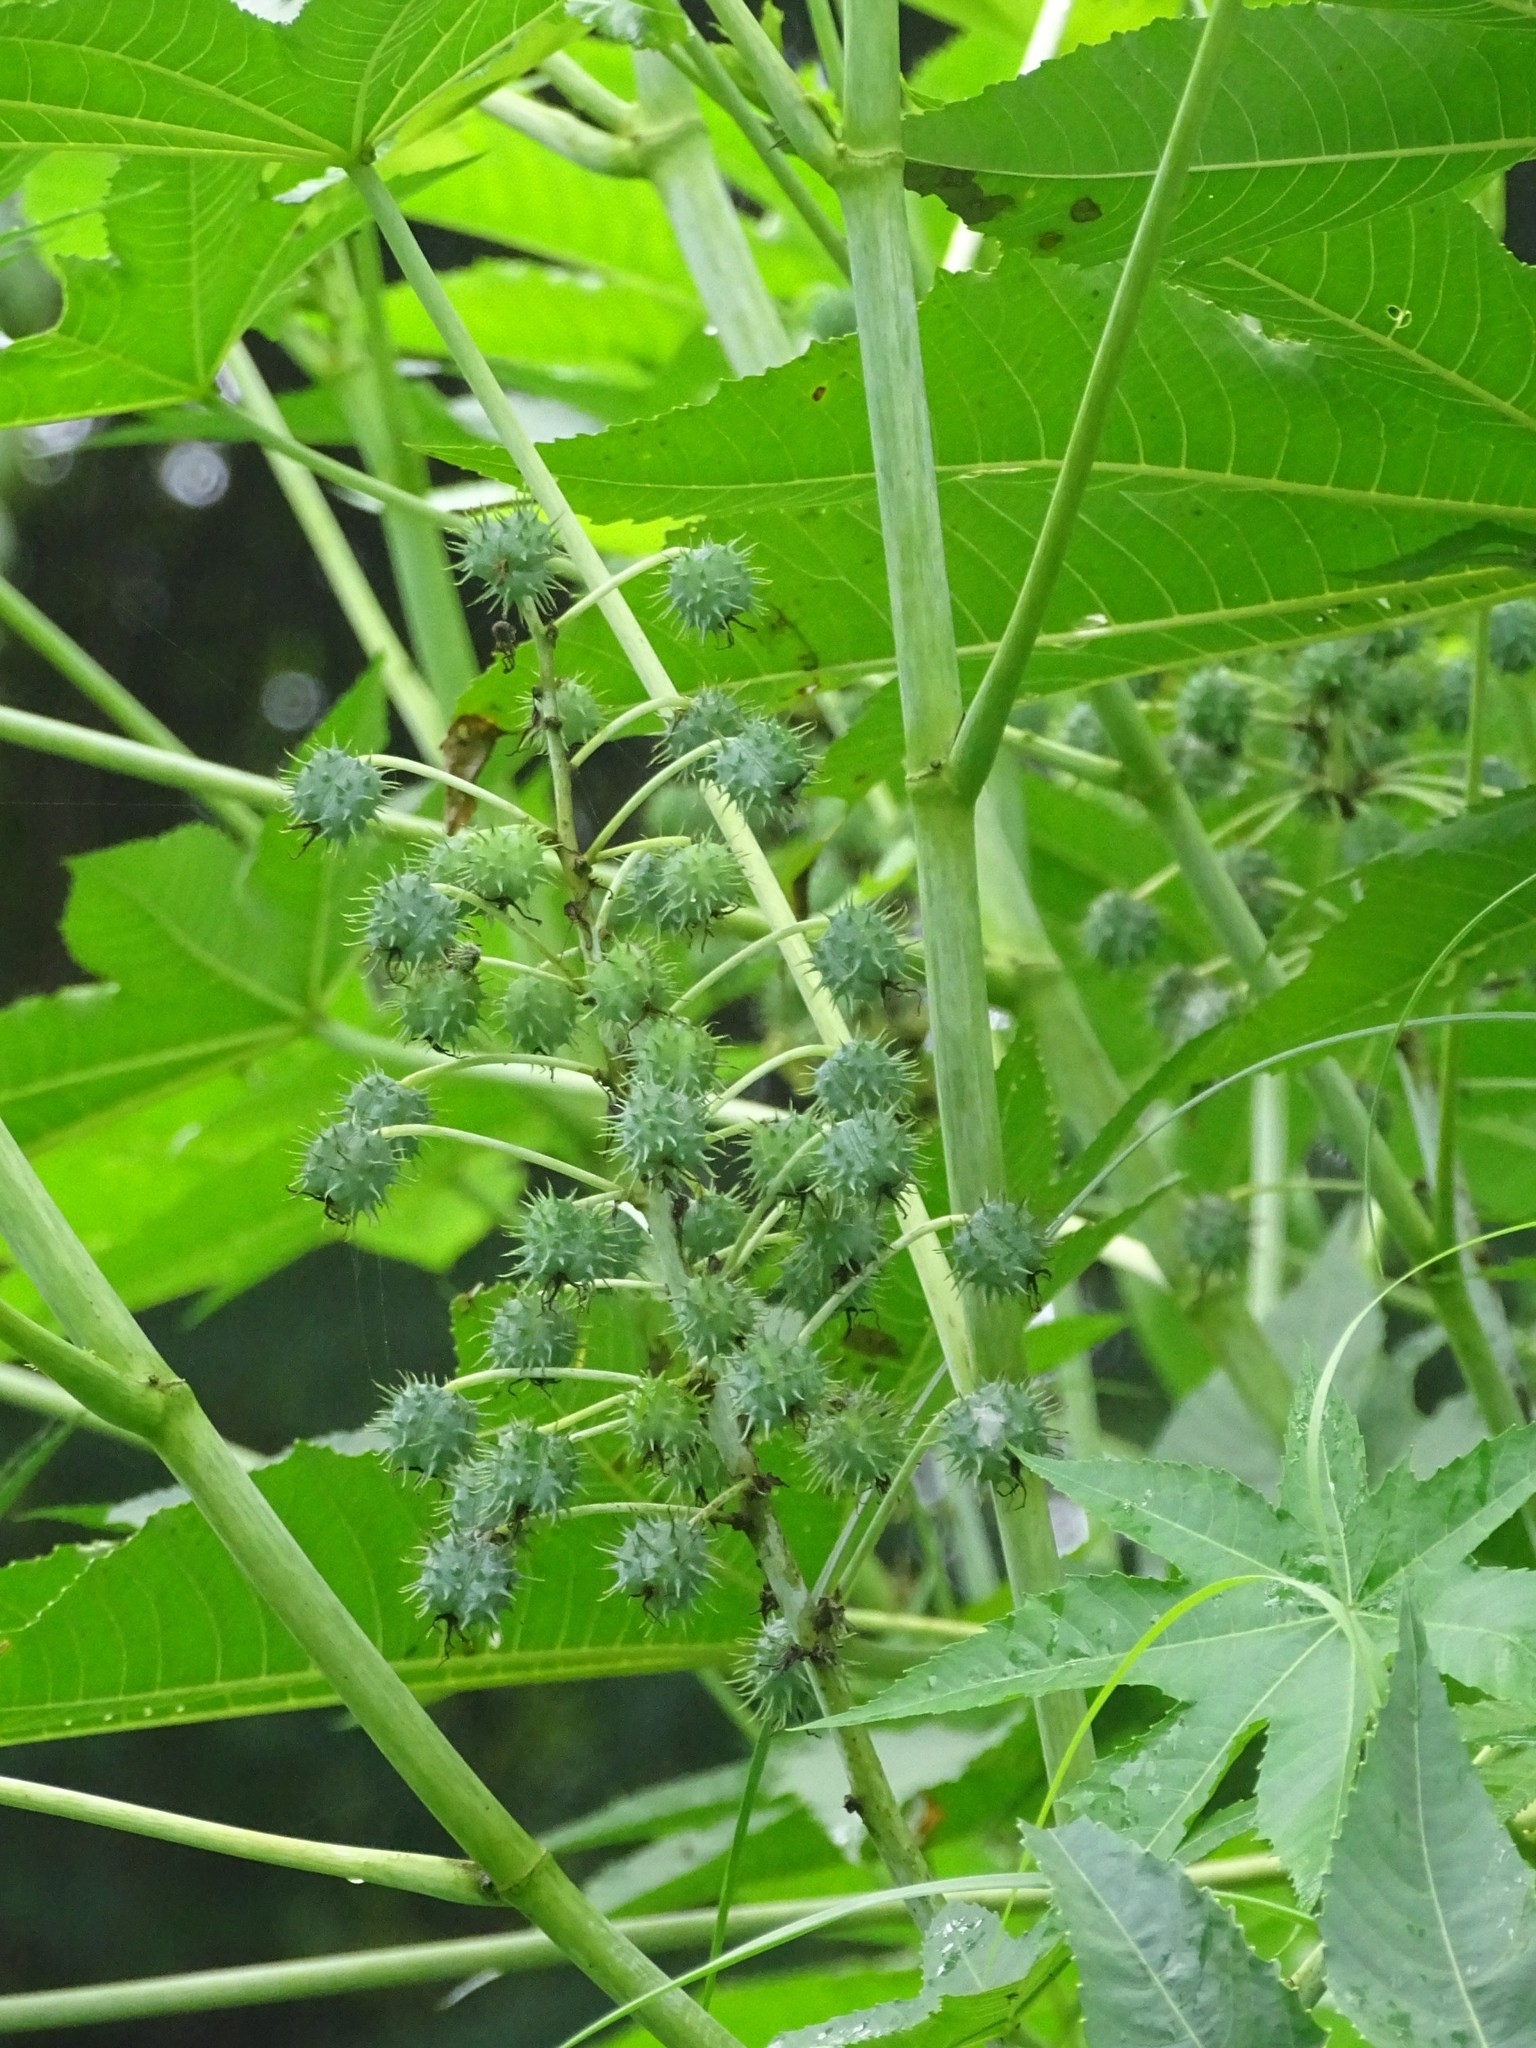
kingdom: Plantae
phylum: Tracheophyta
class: Magnoliopsida
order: Malpighiales
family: Euphorbiaceae
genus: Ricinus
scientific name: Ricinus communis
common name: Castor-oil-plant
